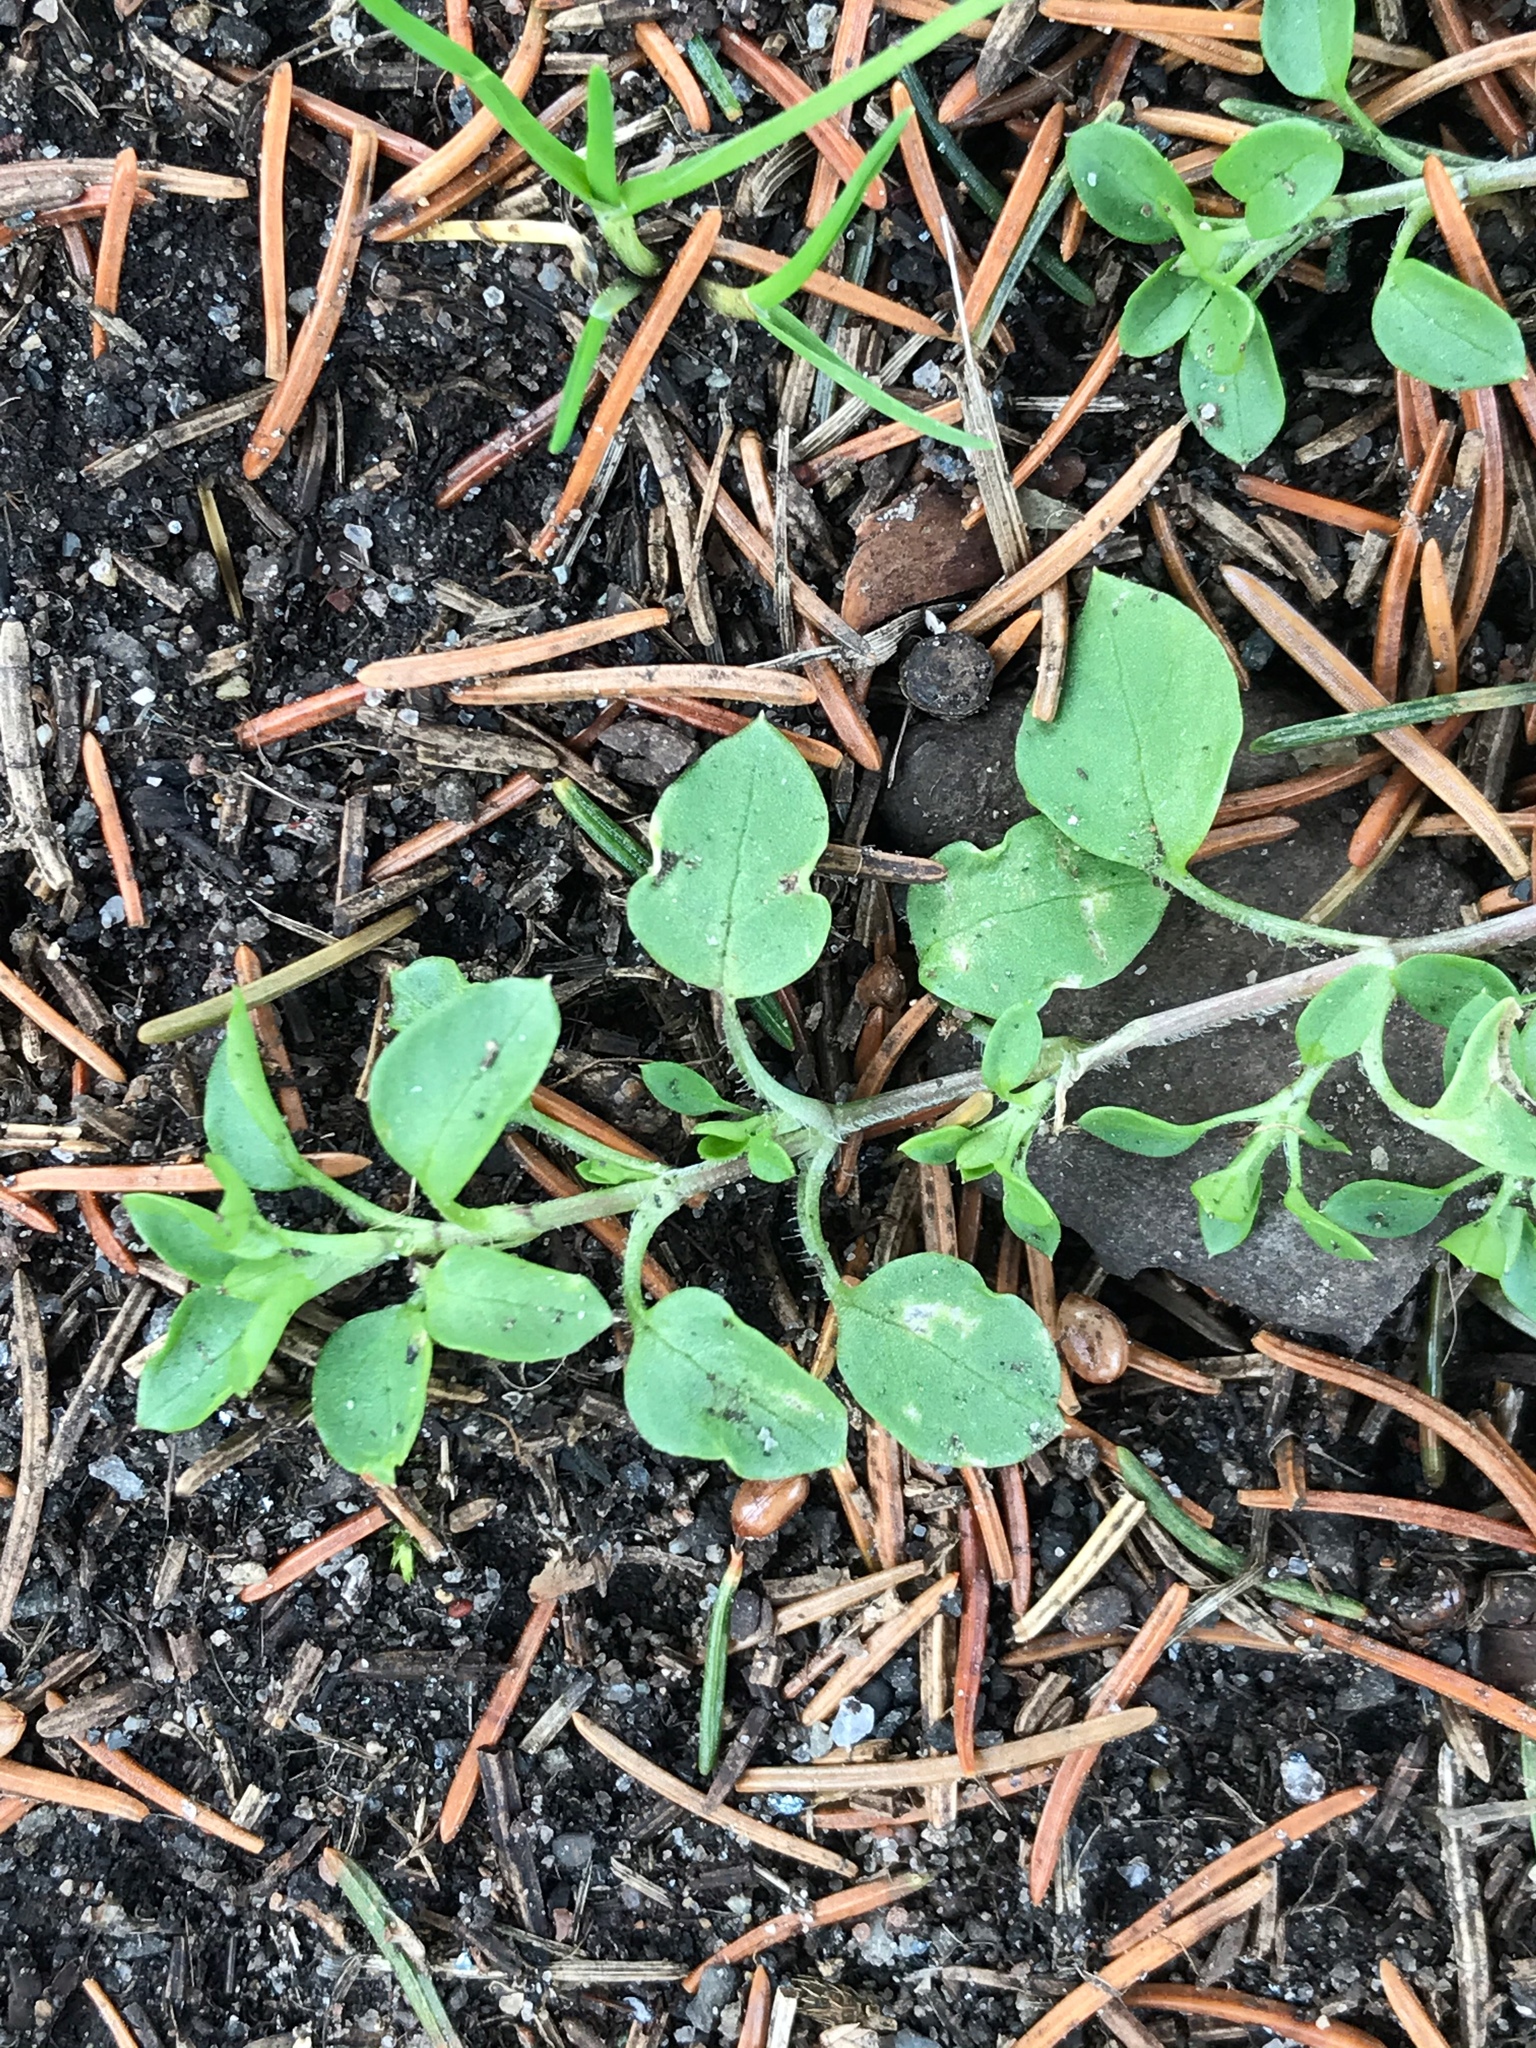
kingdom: Plantae
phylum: Tracheophyta
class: Magnoliopsida
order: Caryophyllales
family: Caryophyllaceae
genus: Stellaria
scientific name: Stellaria media
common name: Common chickweed
